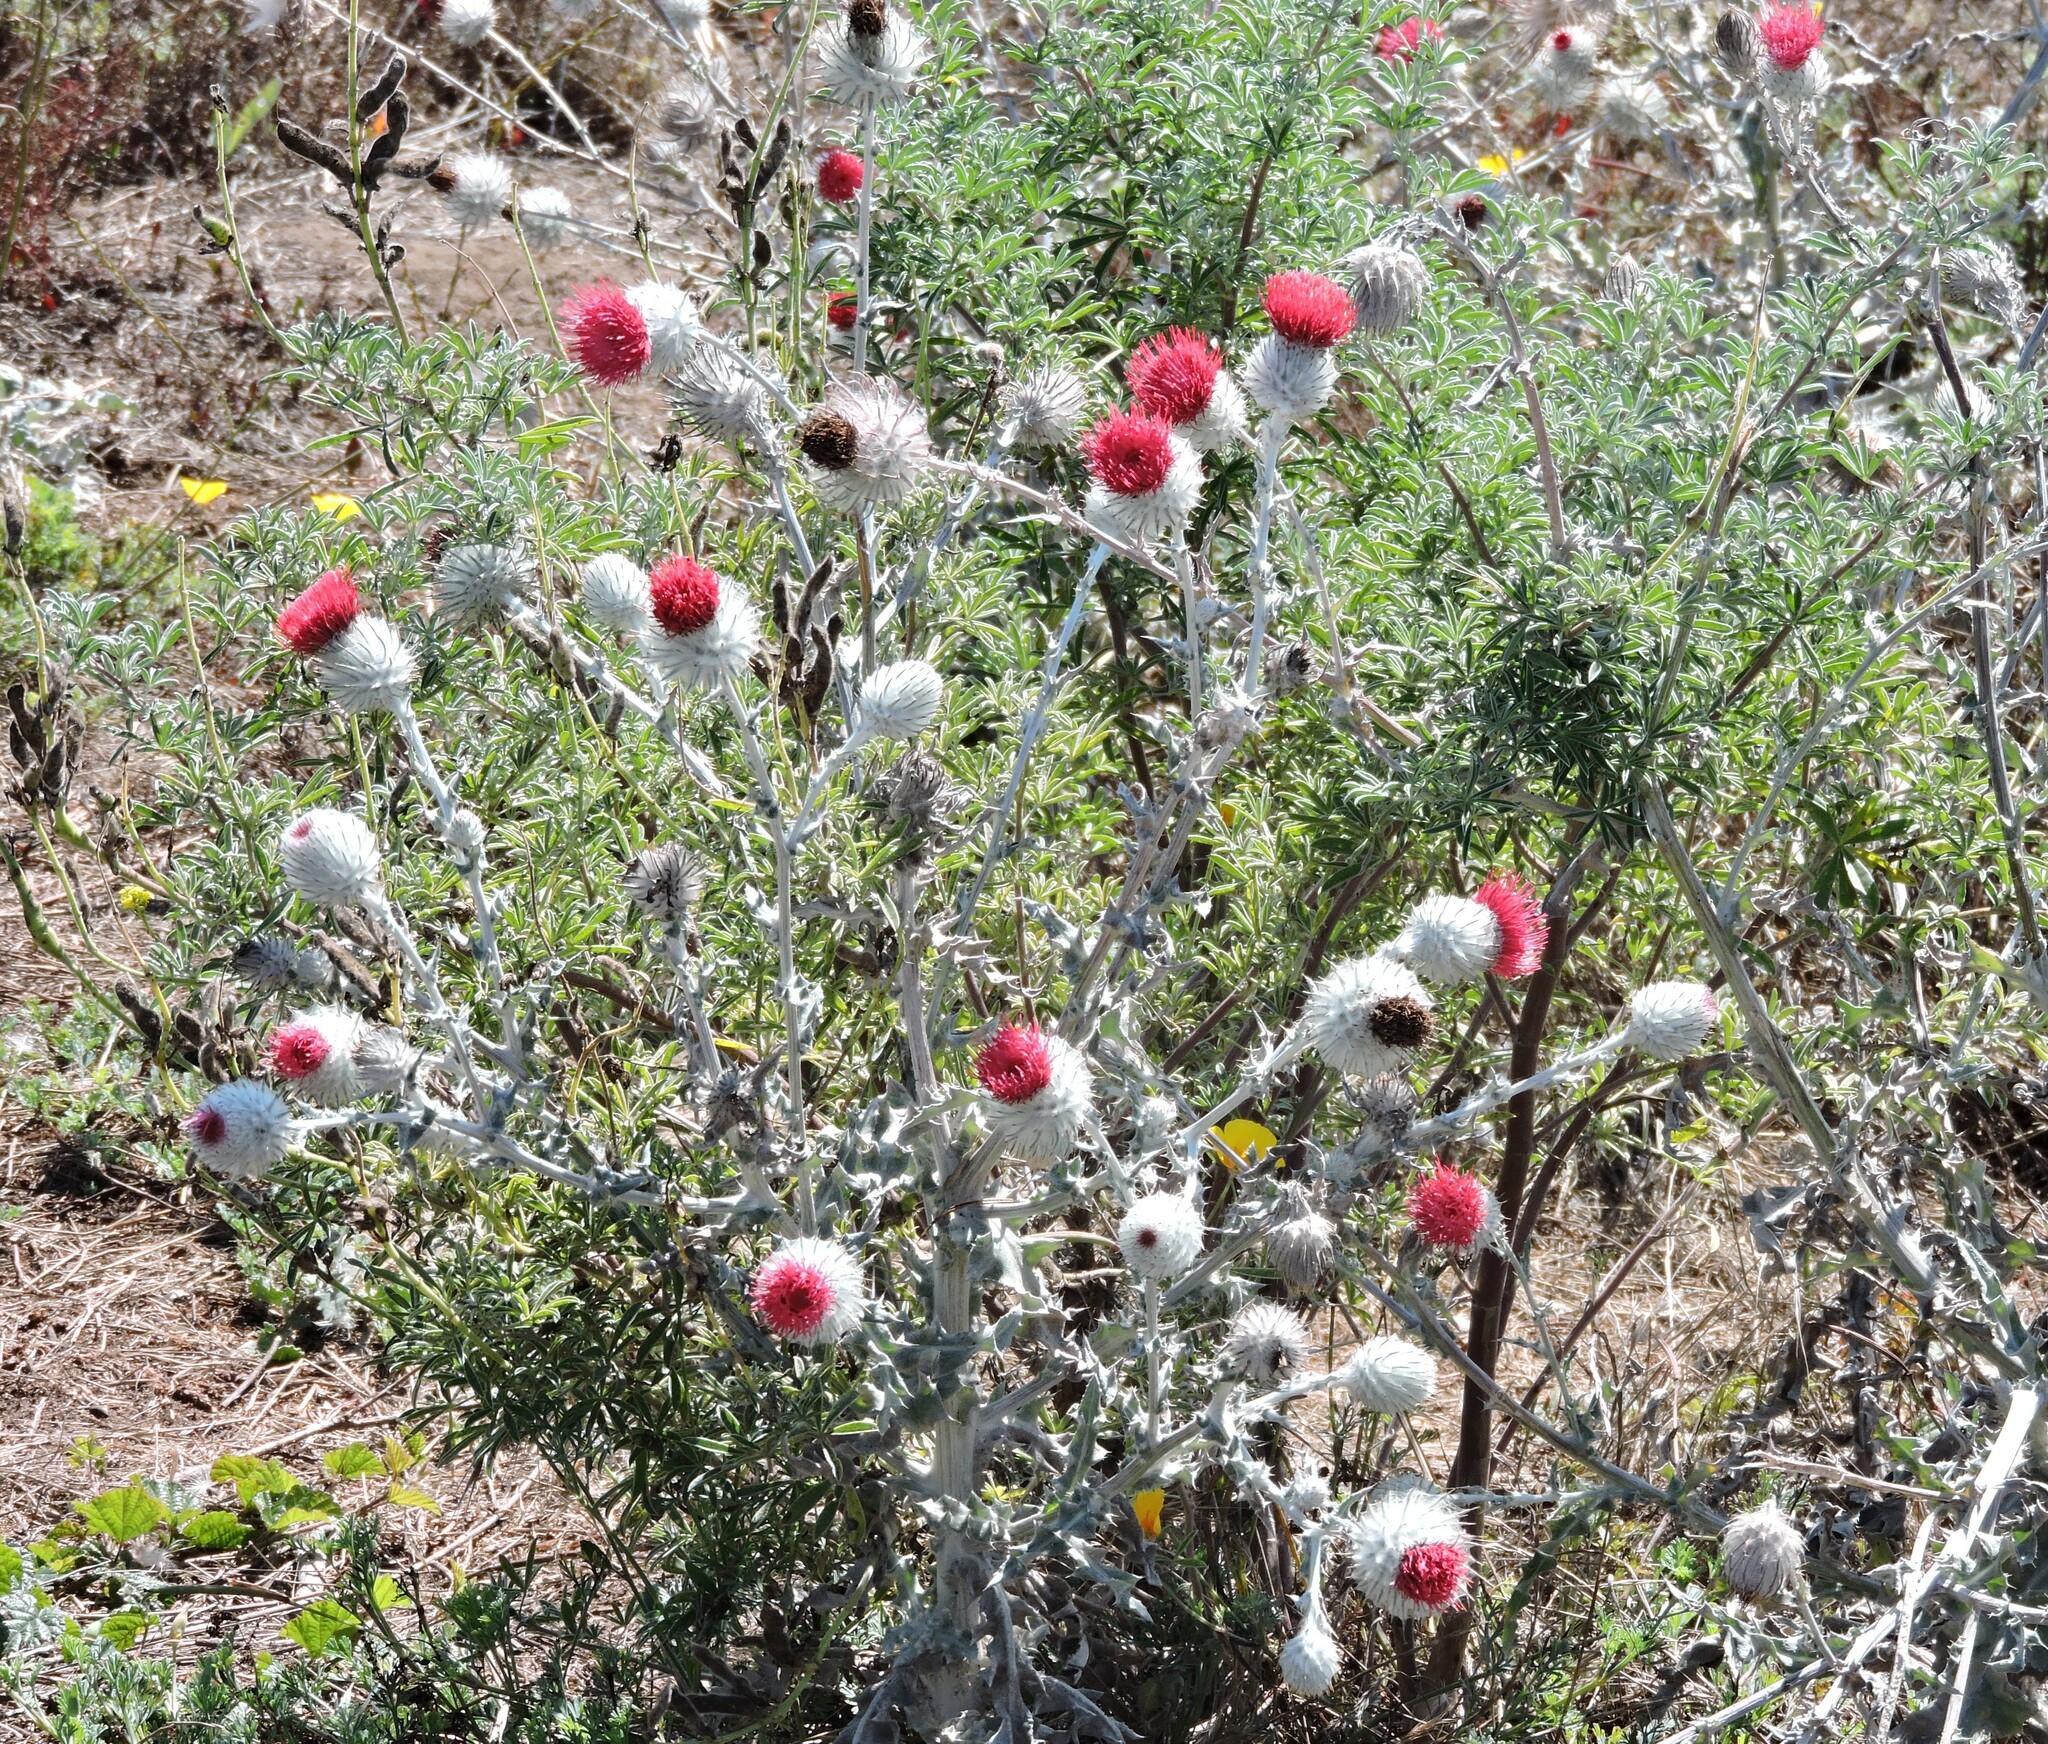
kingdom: Plantae
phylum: Tracheophyta
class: Magnoliopsida
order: Asterales
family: Asteraceae
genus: Cirsium
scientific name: Cirsium occidentale
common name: Western thistle
